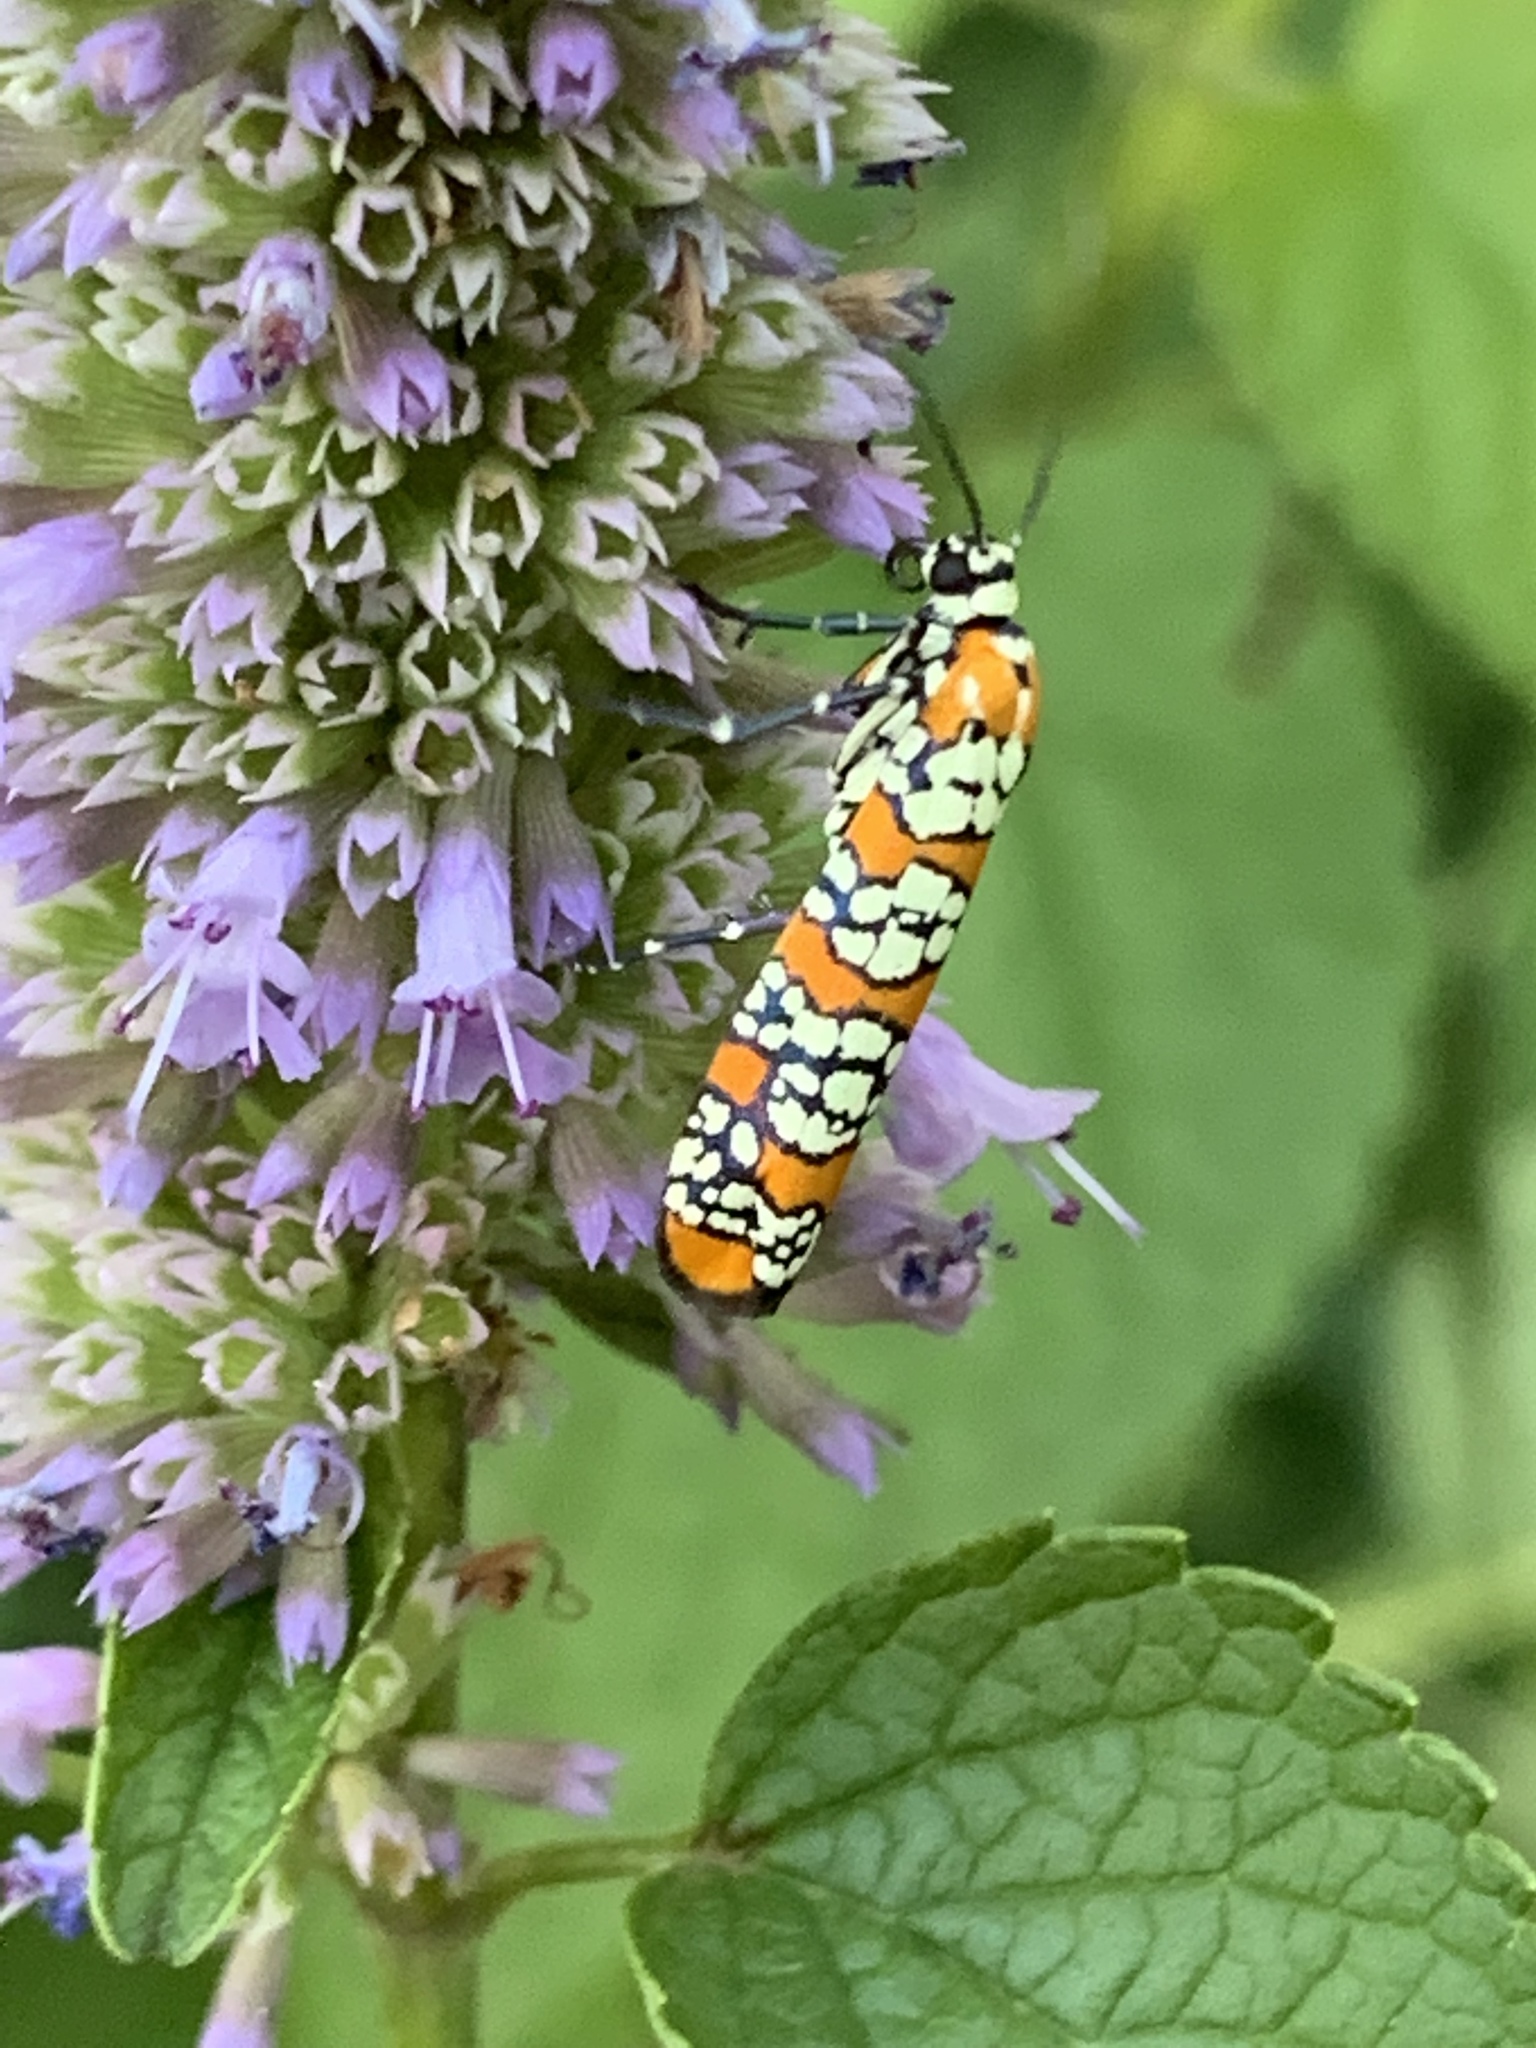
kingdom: Animalia
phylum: Arthropoda
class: Insecta
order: Lepidoptera
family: Attevidae
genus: Atteva
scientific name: Atteva punctella
